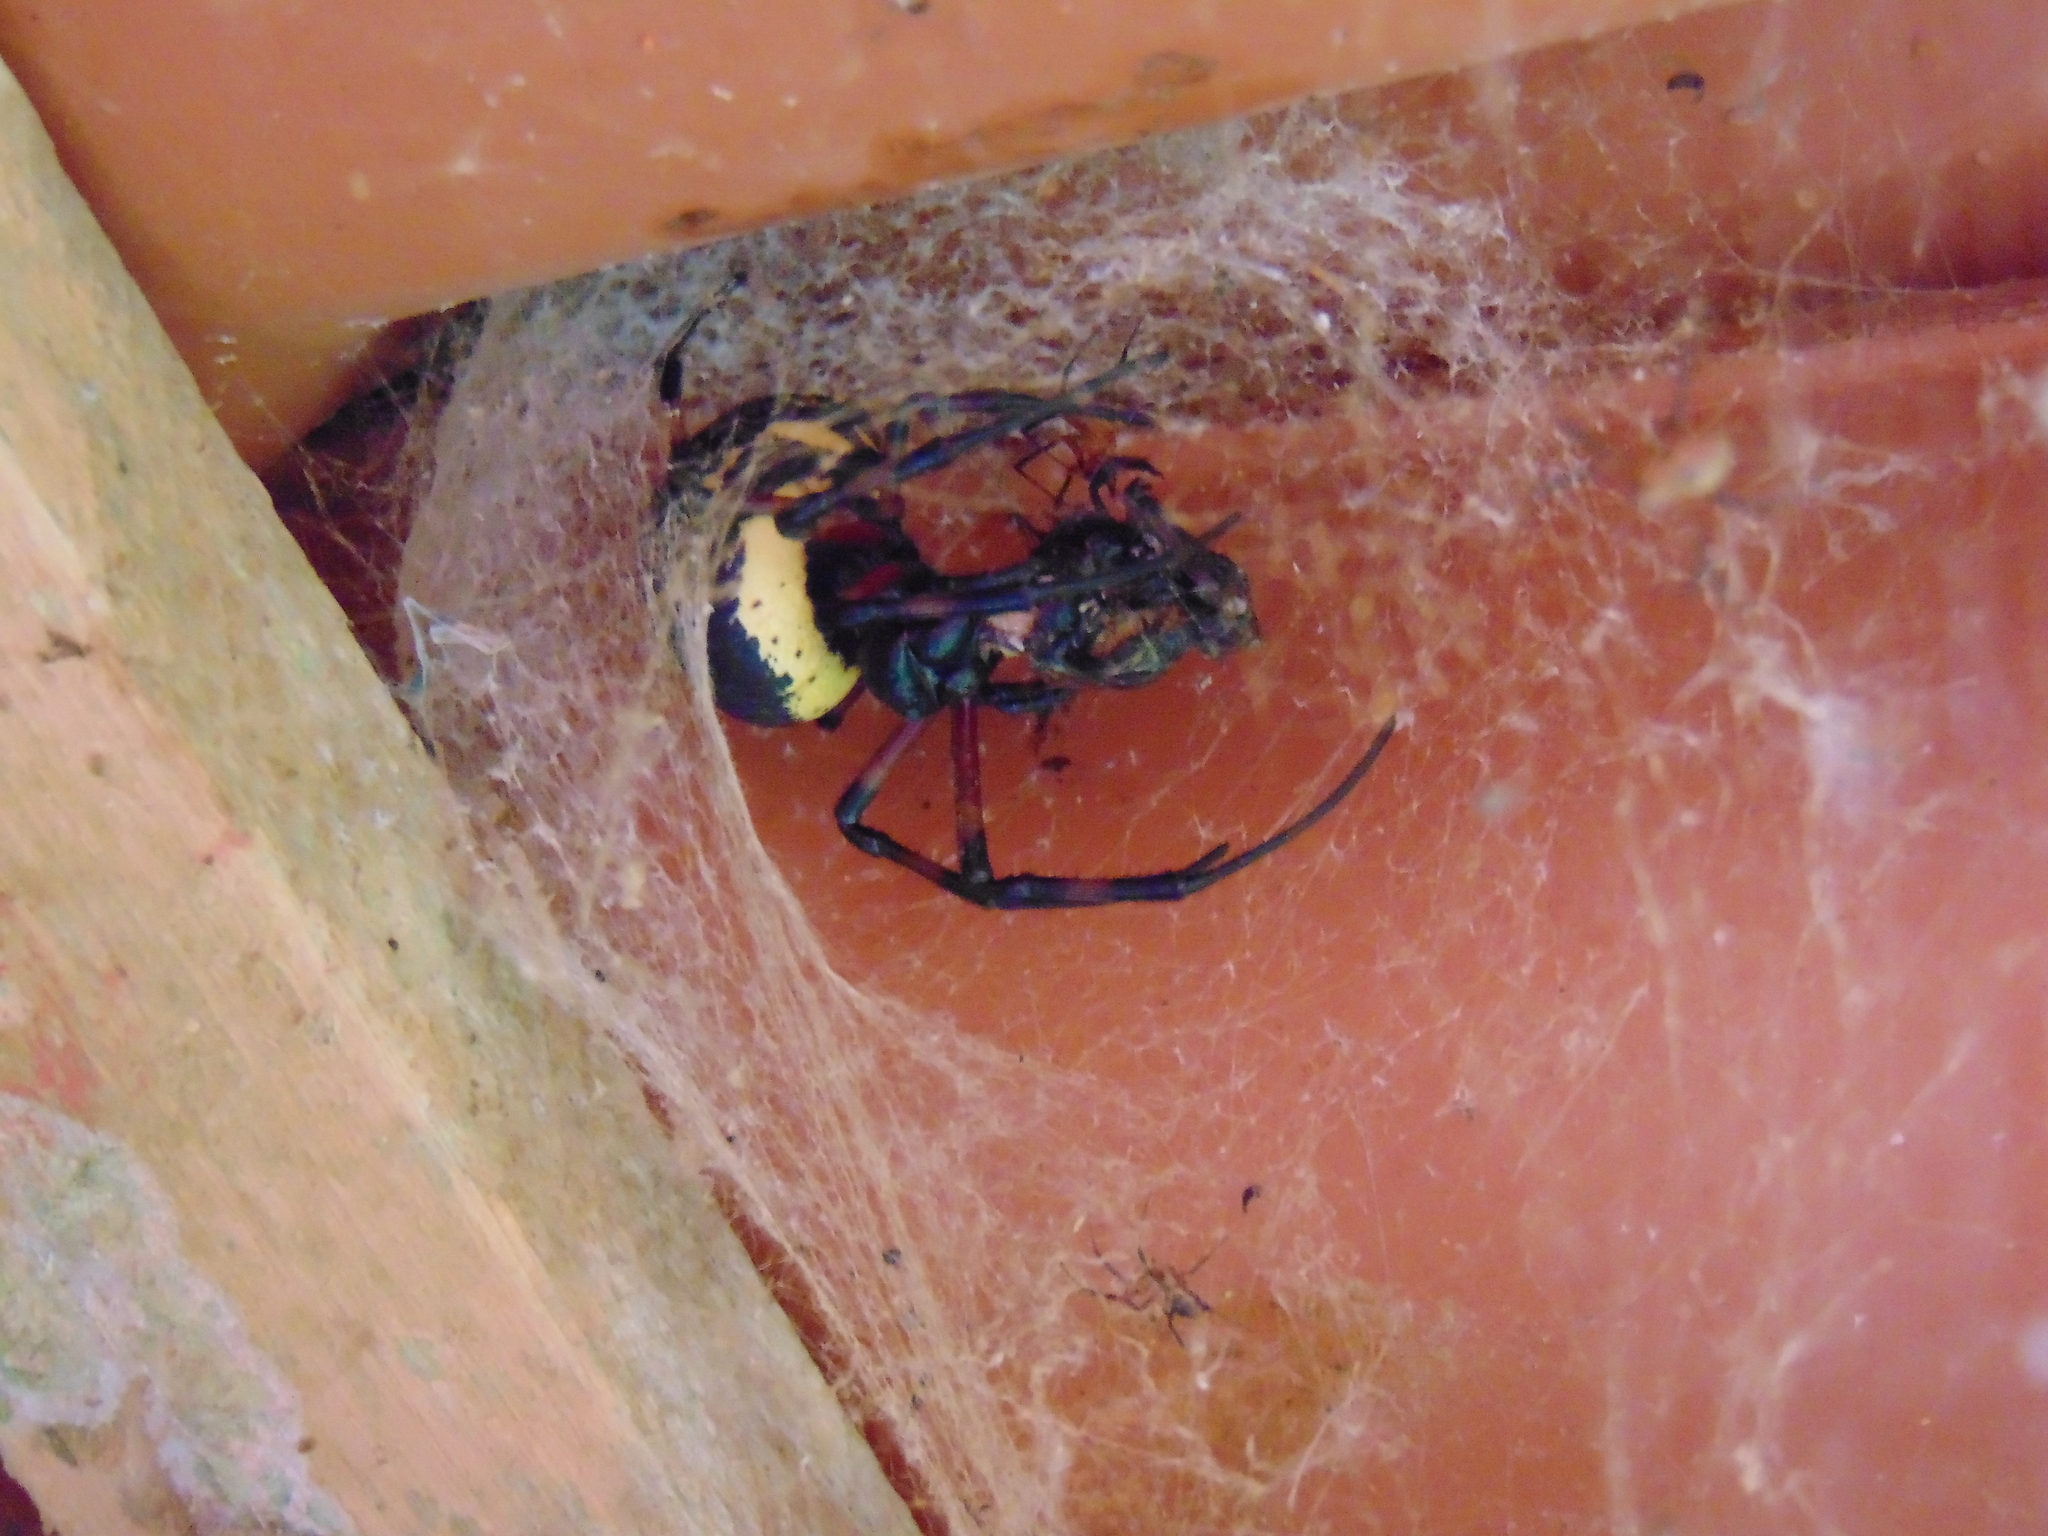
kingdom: Animalia
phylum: Arthropoda
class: Arachnida
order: Araneae
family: Araneidae
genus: Nephilingis
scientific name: Nephilingis cruentata
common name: African hermit spider
